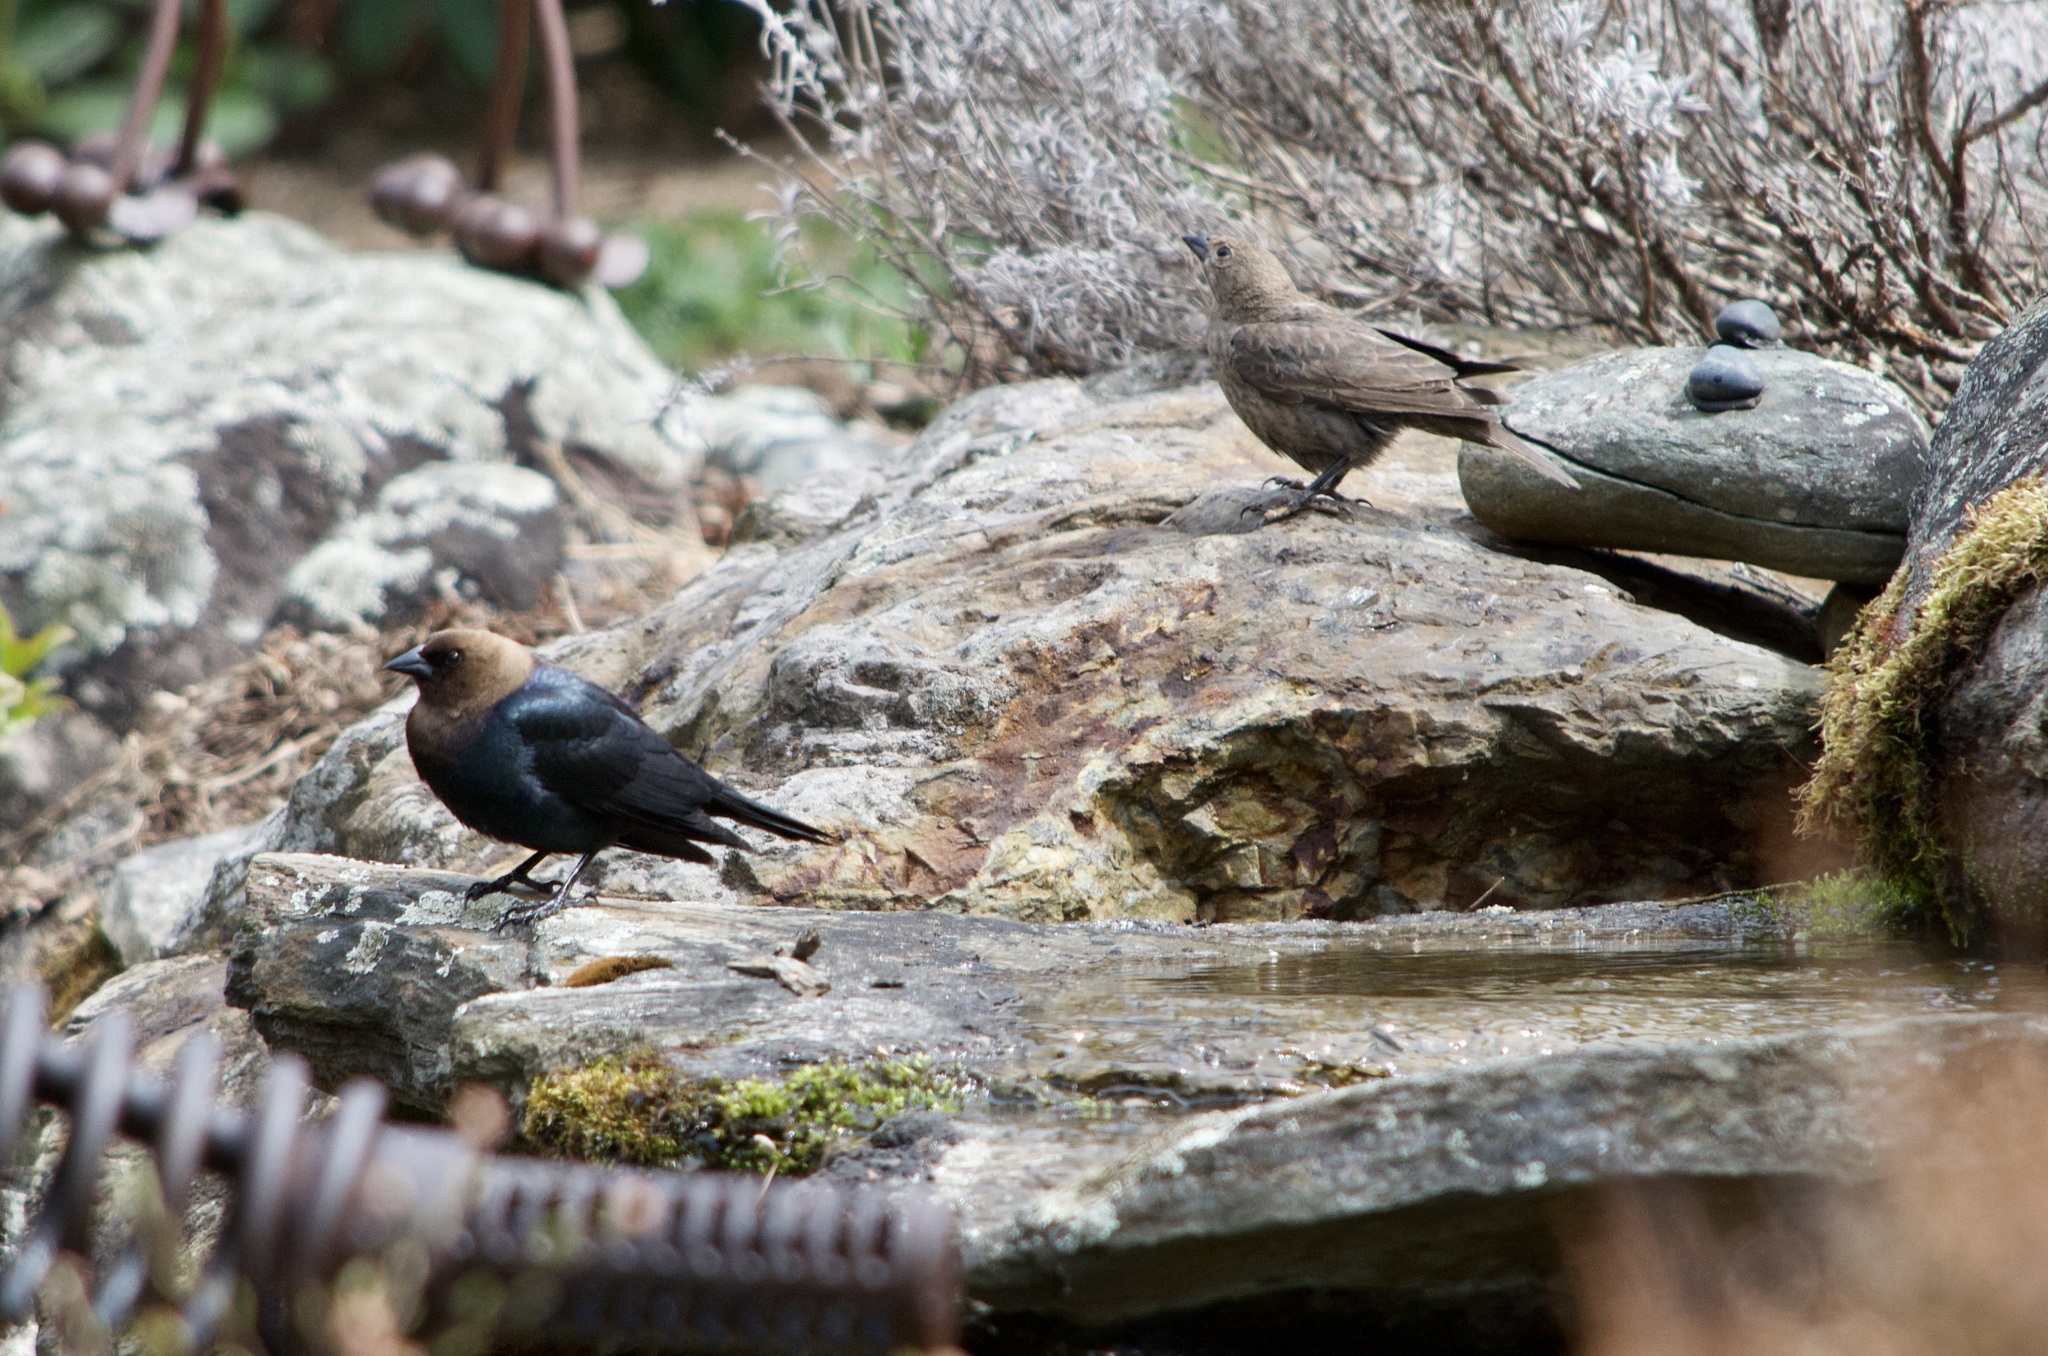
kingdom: Animalia
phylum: Chordata
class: Aves
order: Passeriformes
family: Icteridae
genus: Molothrus
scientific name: Molothrus ater
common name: Brown-headed cowbird
